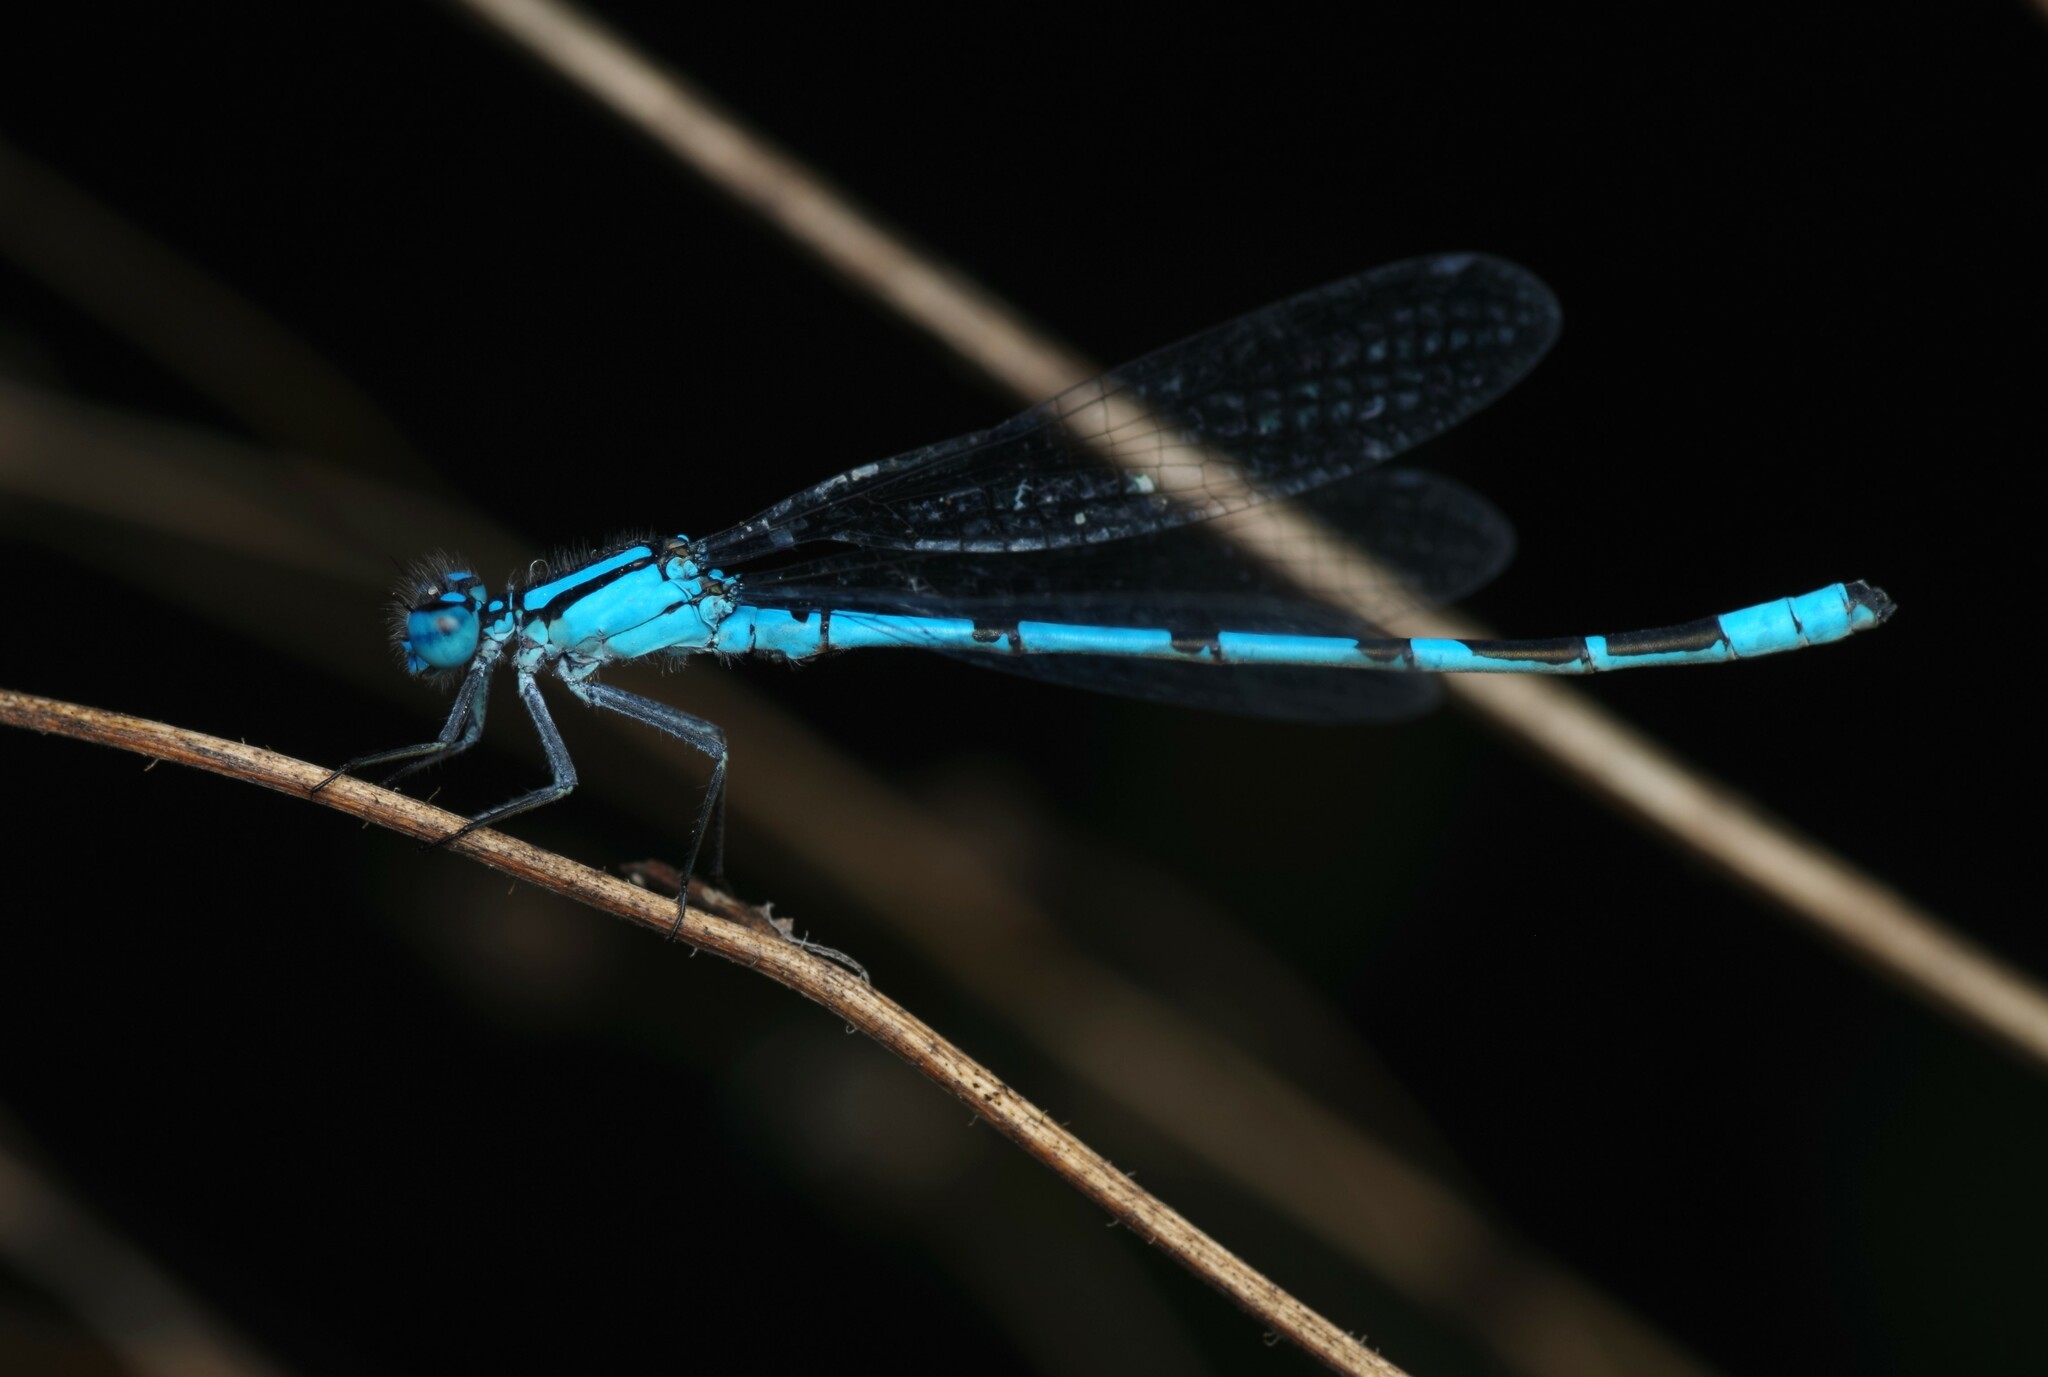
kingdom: Animalia
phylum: Arthropoda
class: Insecta
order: Odonata
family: Coenagrionidae
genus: Enallagma
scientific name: Enallagma cyathigerum
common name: Common blue damselfly
